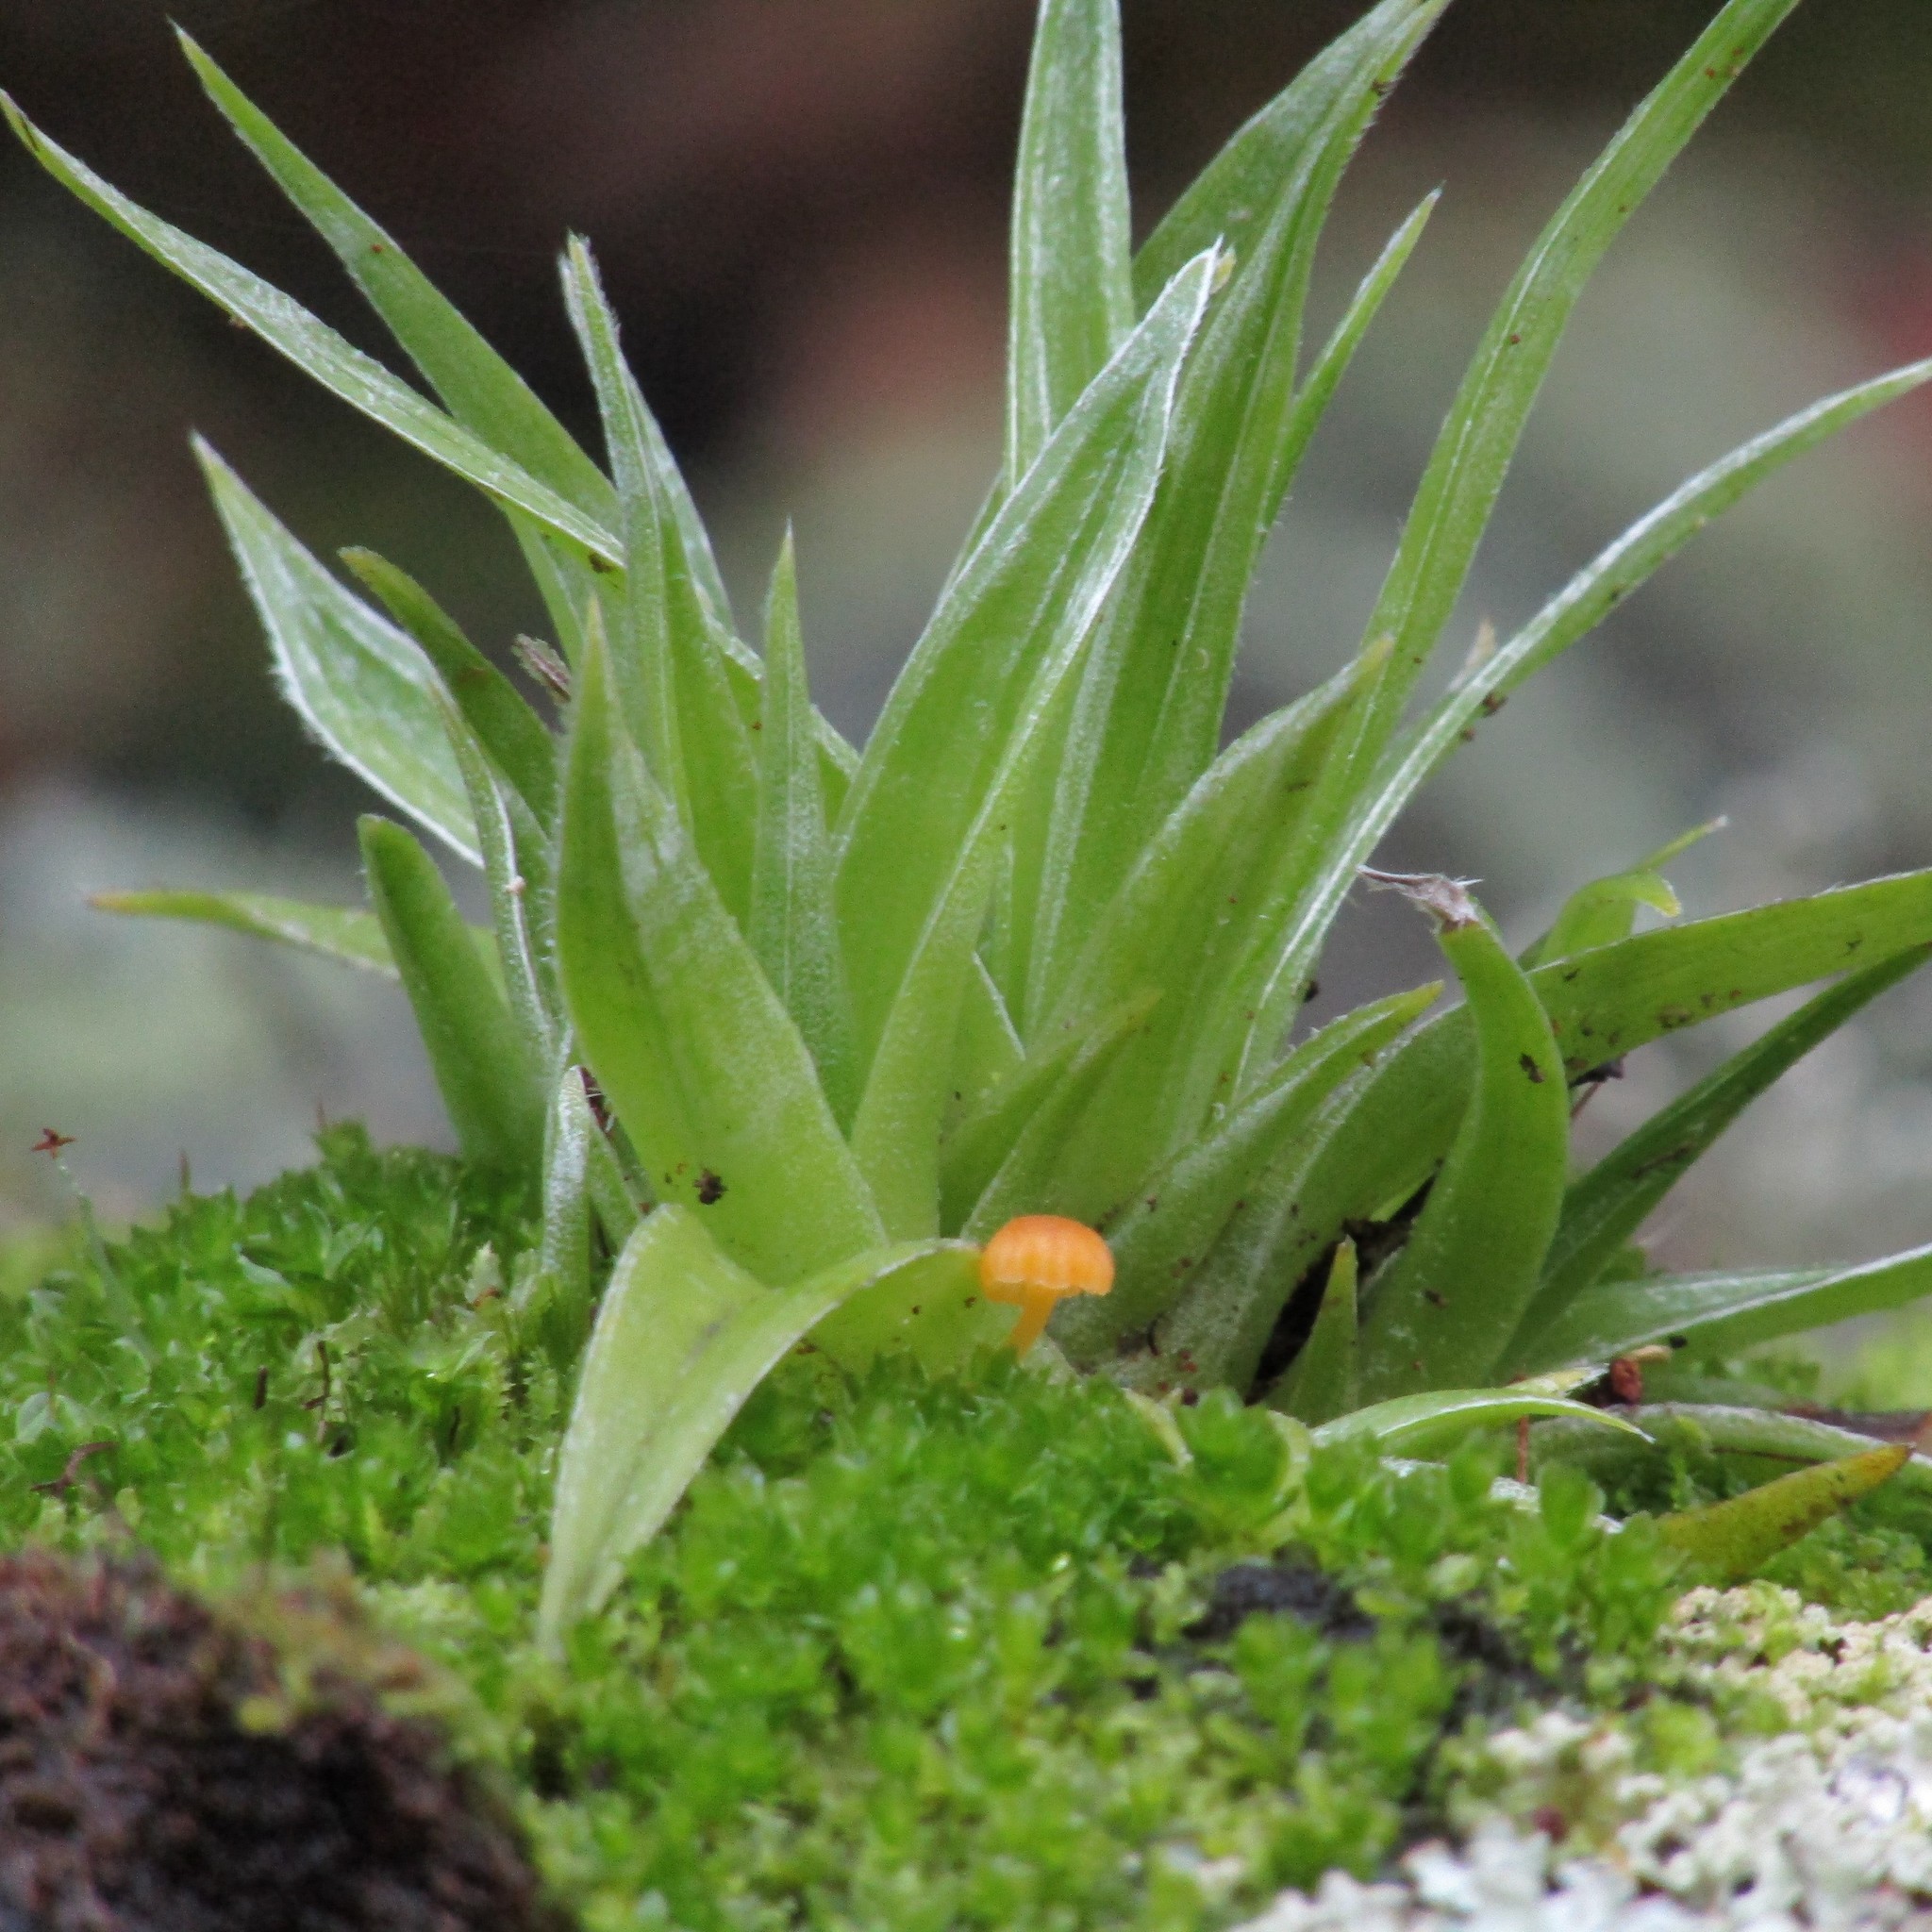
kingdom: Plantae
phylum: Tracheophyta
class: Liliopsida
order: Asparagales
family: Asteliaceae
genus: Astelia
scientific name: Astelia solandri
